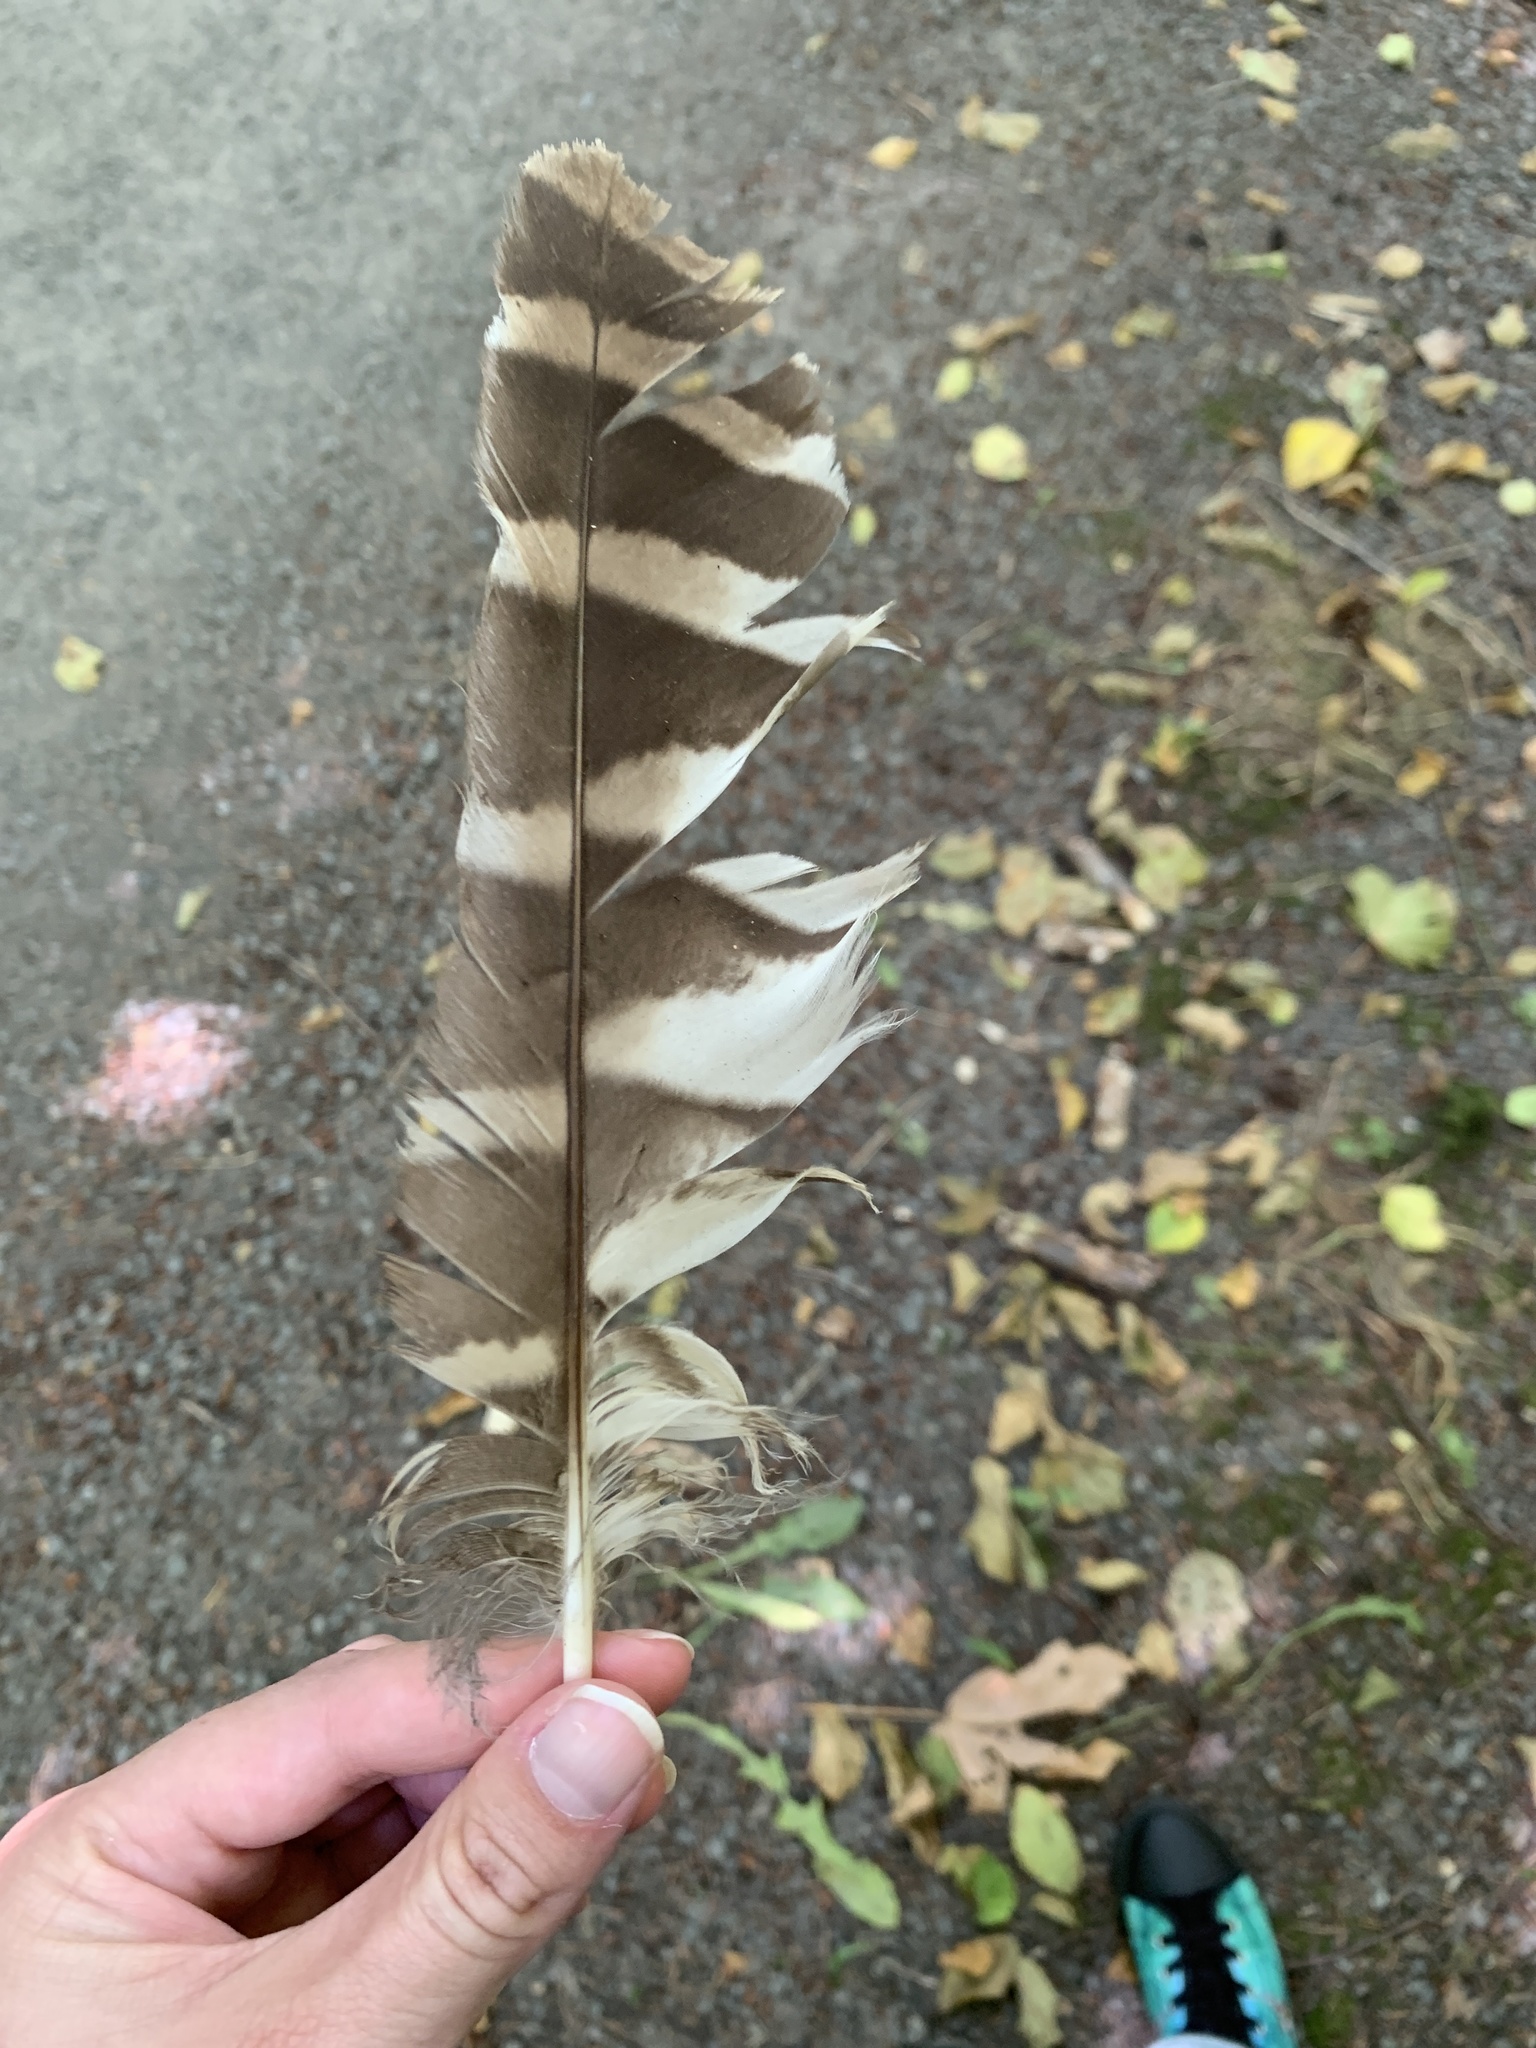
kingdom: Animalia
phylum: Chordata
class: Aves
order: Strigiformes
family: Strigidae
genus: Strix
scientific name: Strix varia
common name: Barred owl
